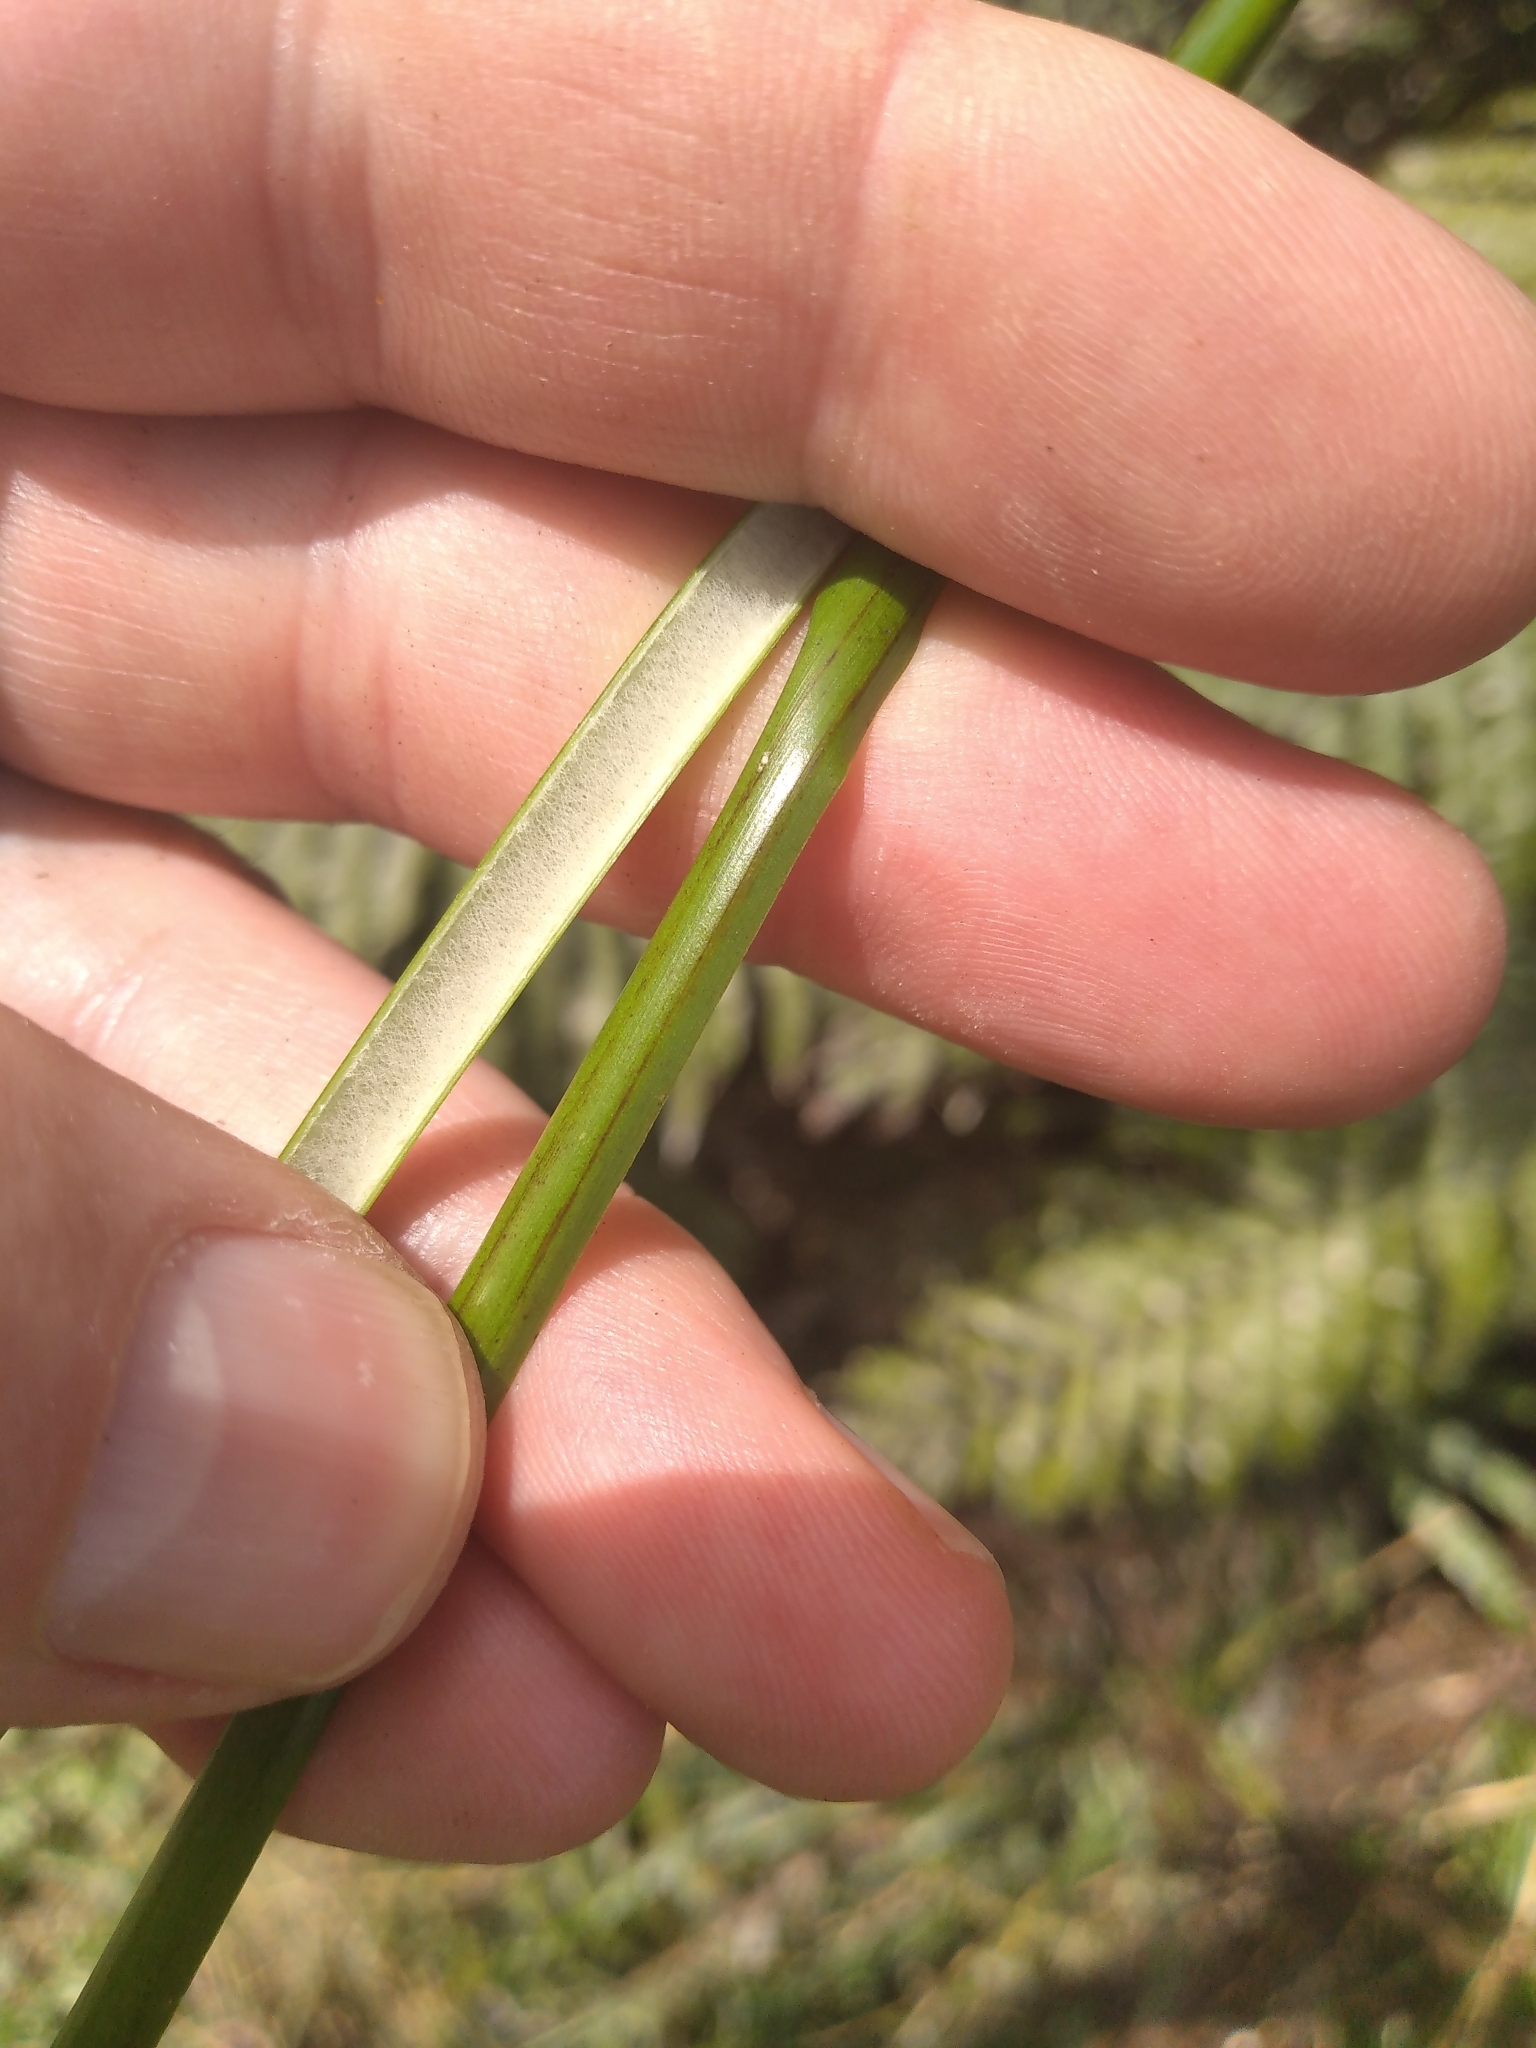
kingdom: Plantae
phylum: Tracheophyta
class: Liliopsida
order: Poales
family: Juncaceae
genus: Juncus
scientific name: Juncus effusus
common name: Soft rush
